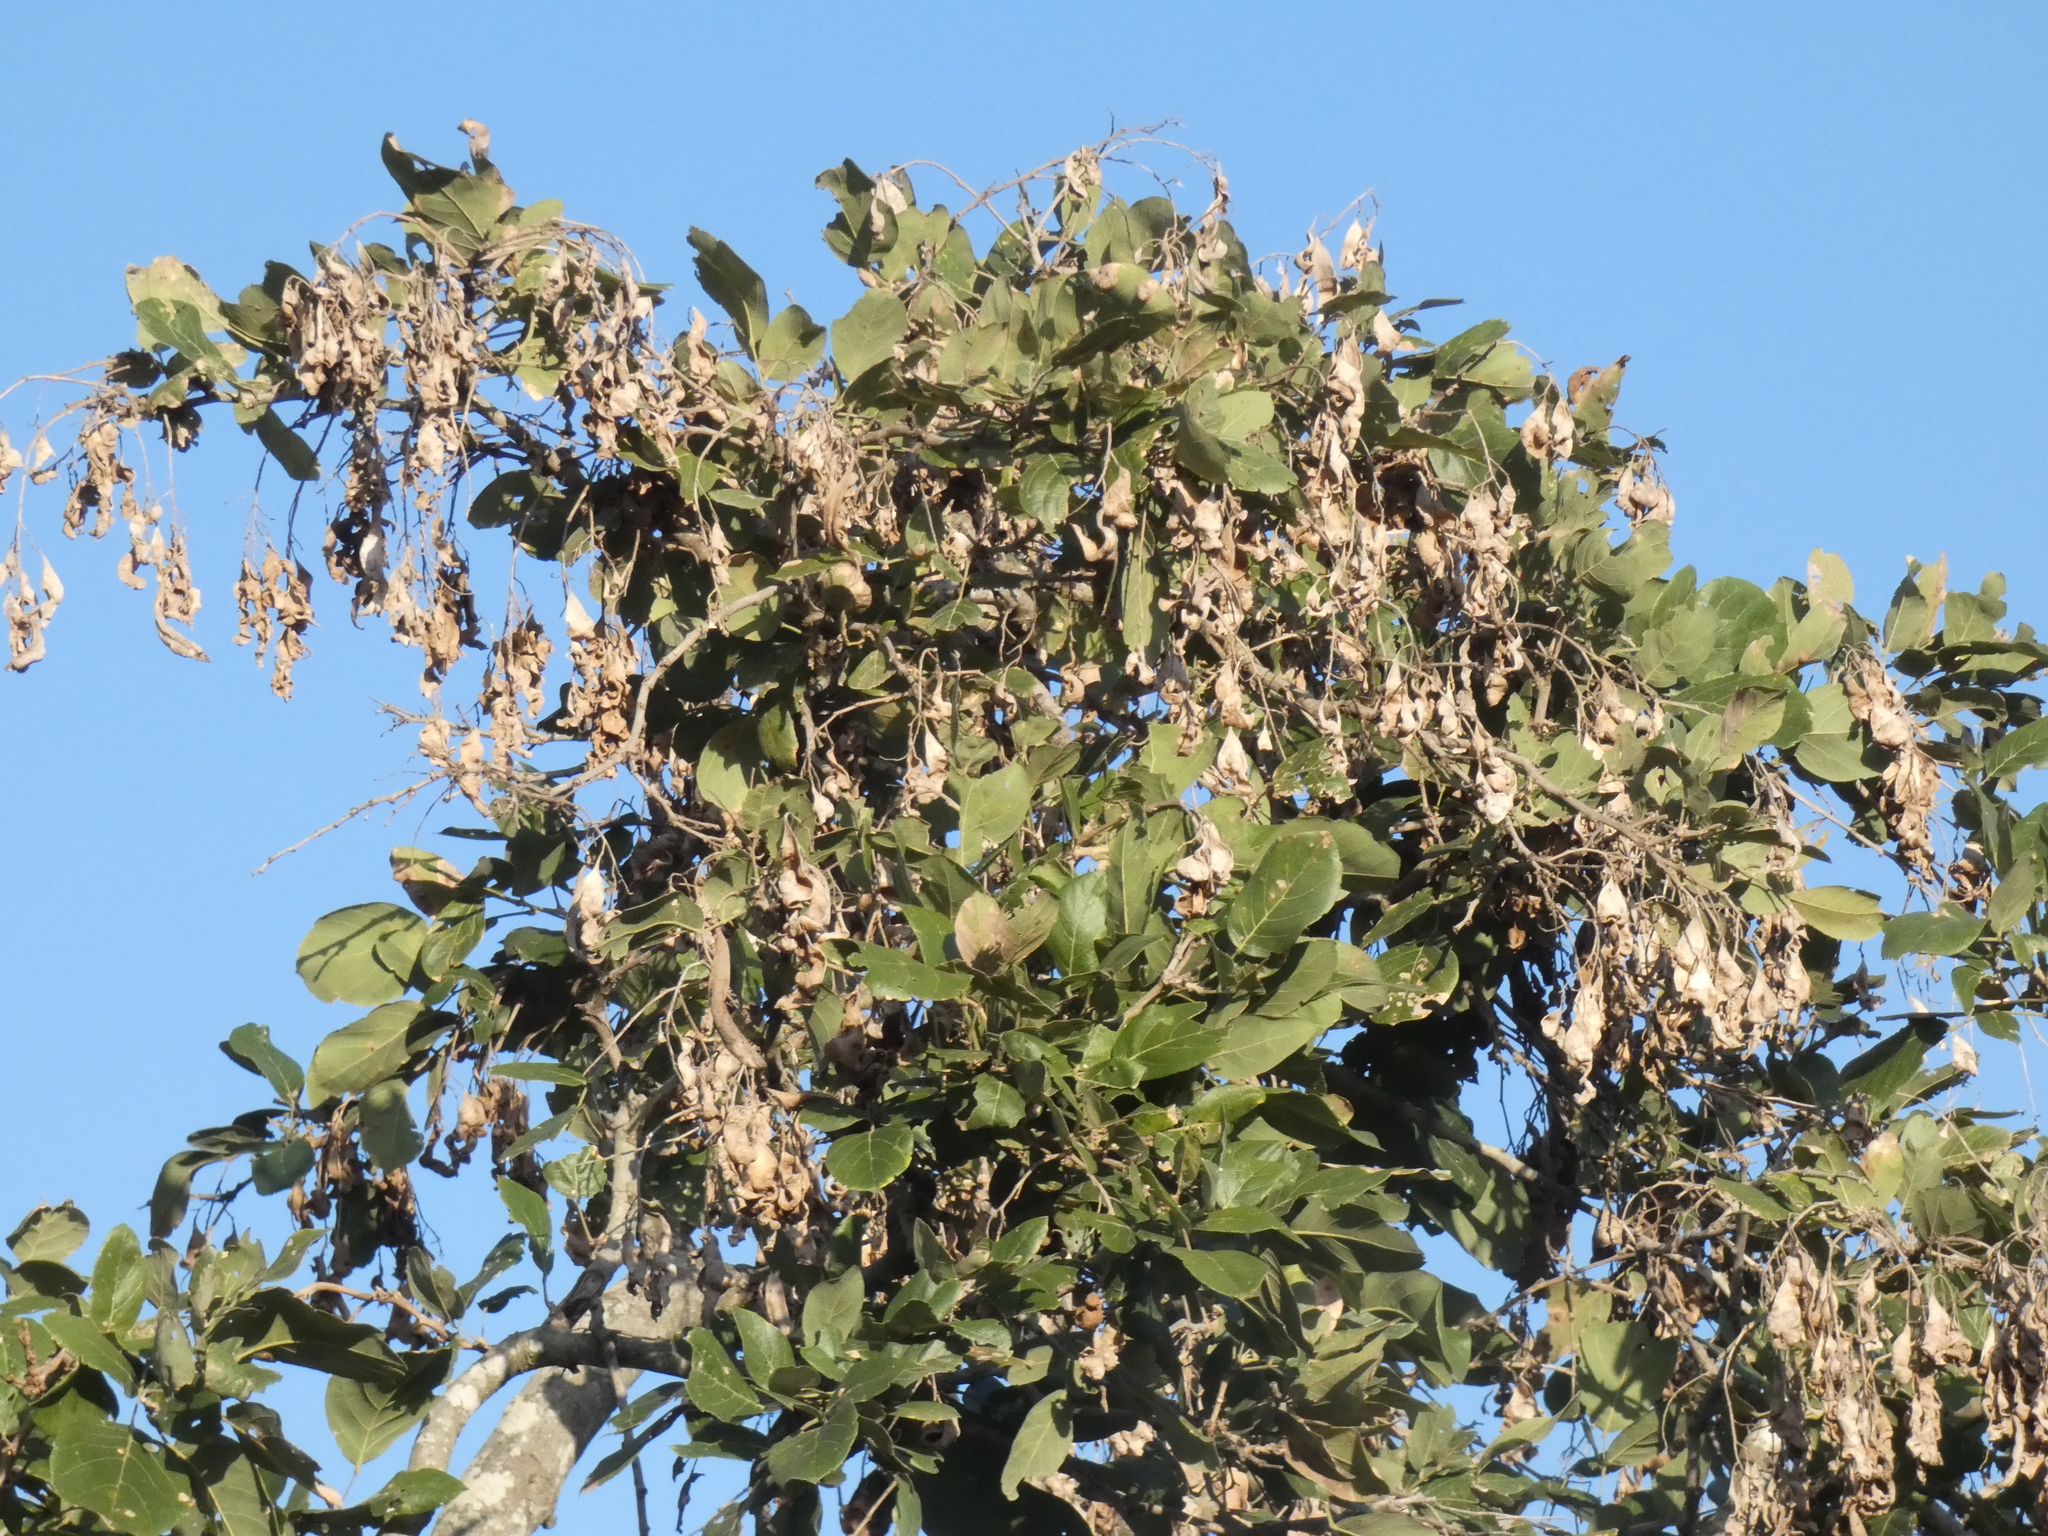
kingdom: Plantae
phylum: Tracheophyta
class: Magnoliopsida
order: Fabales
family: Fabaceae
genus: Philenoptera
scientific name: Philenoptera violacea
